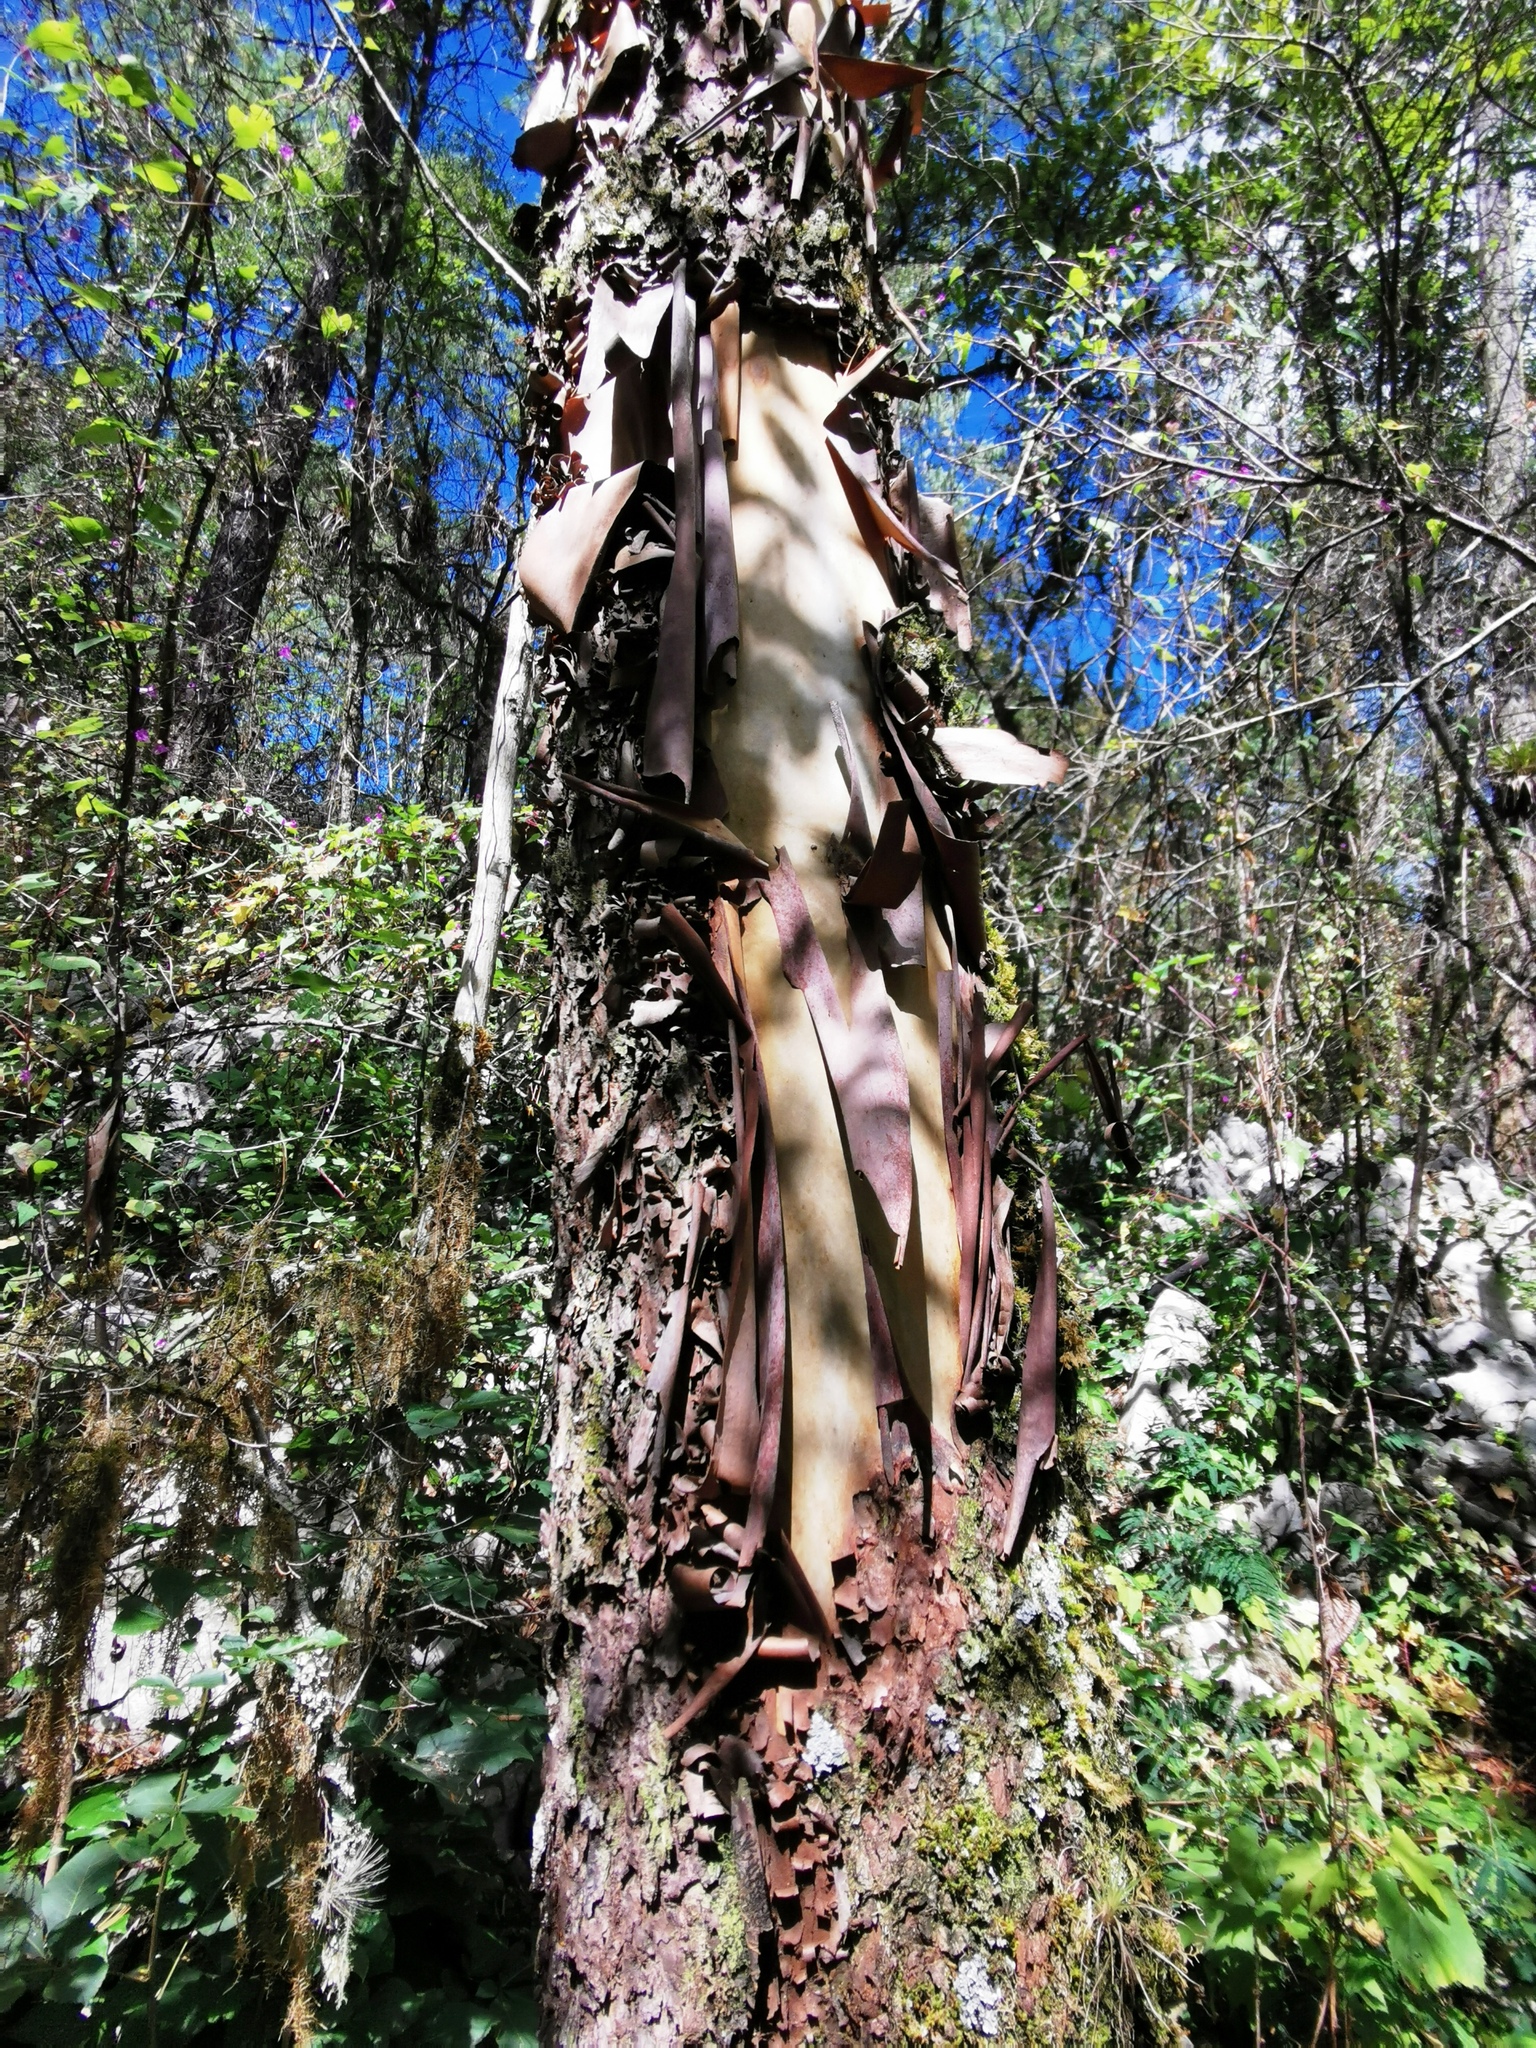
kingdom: Plantae
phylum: Tracheophyta
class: Magnoliopsida
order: Ericales
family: Ericaceae
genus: Arbutus
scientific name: Arbutus xalapensis
